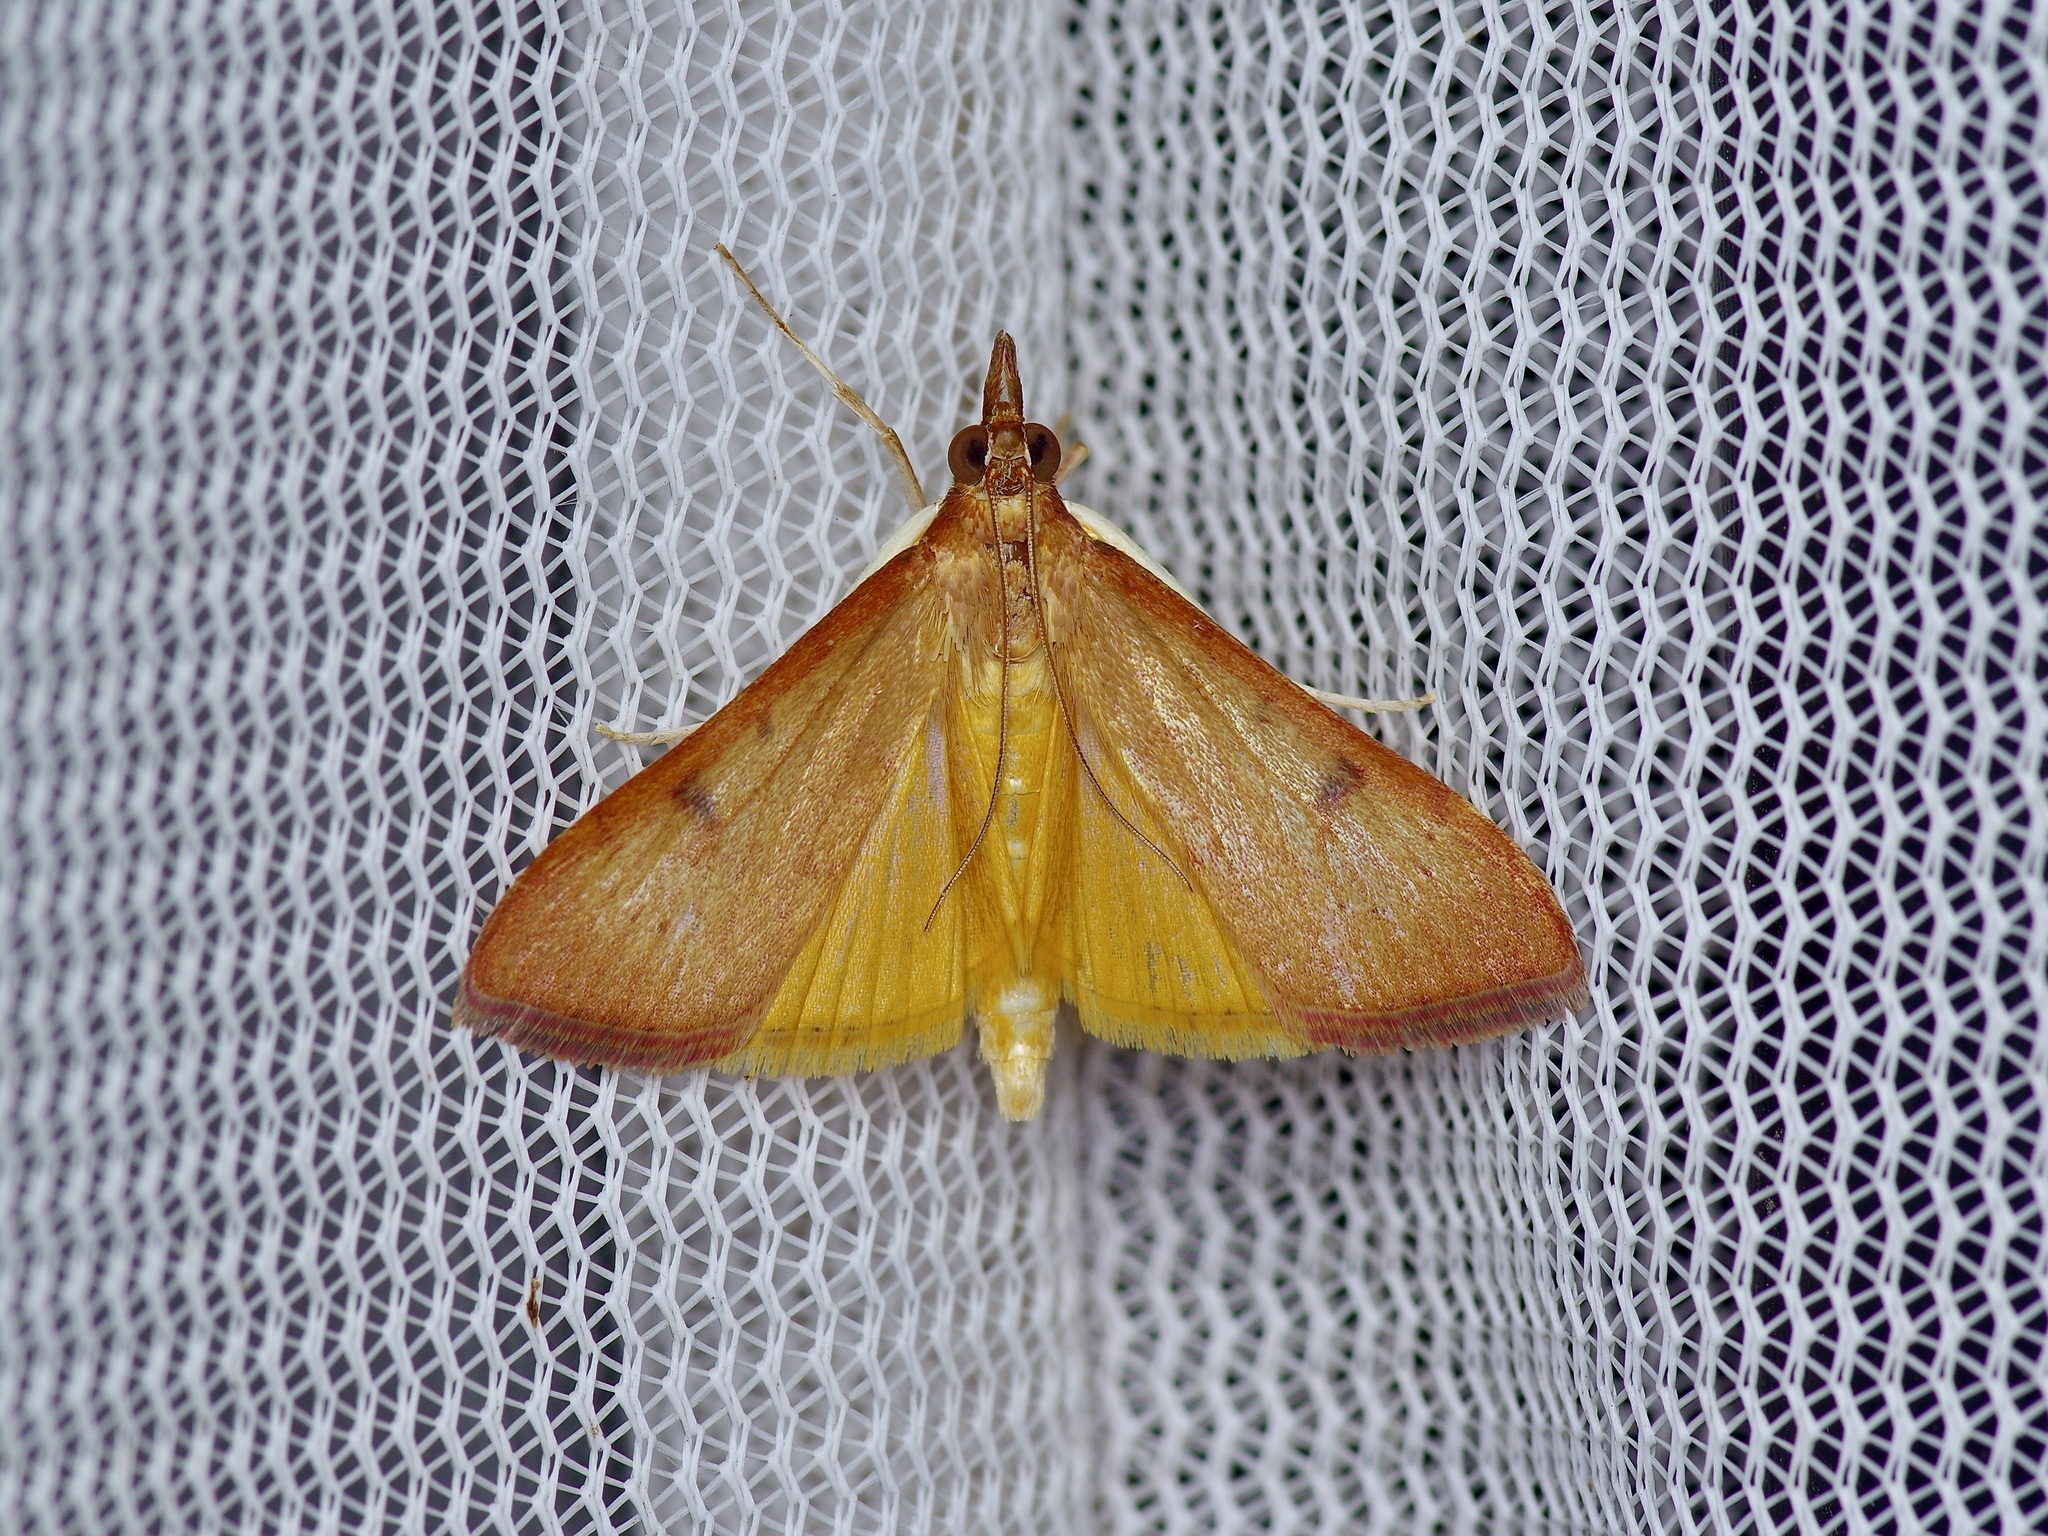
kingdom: Animalia
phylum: Arthropoda
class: Insecta
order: Lepidoptera
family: Crambidae
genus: Uresiphita
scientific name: Uresiphita reversalis
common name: Genista broom moth
